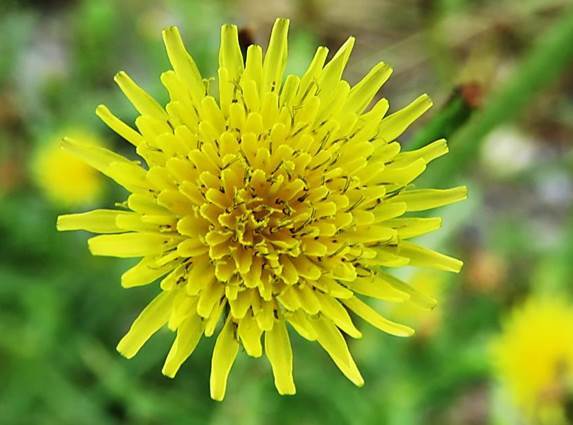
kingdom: Plantae
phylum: Tracheophyta
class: Magnoliopsida
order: Asterales
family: Asteraceae
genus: Sonchus
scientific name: Sonchus asper
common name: Prickly sow-thistle
